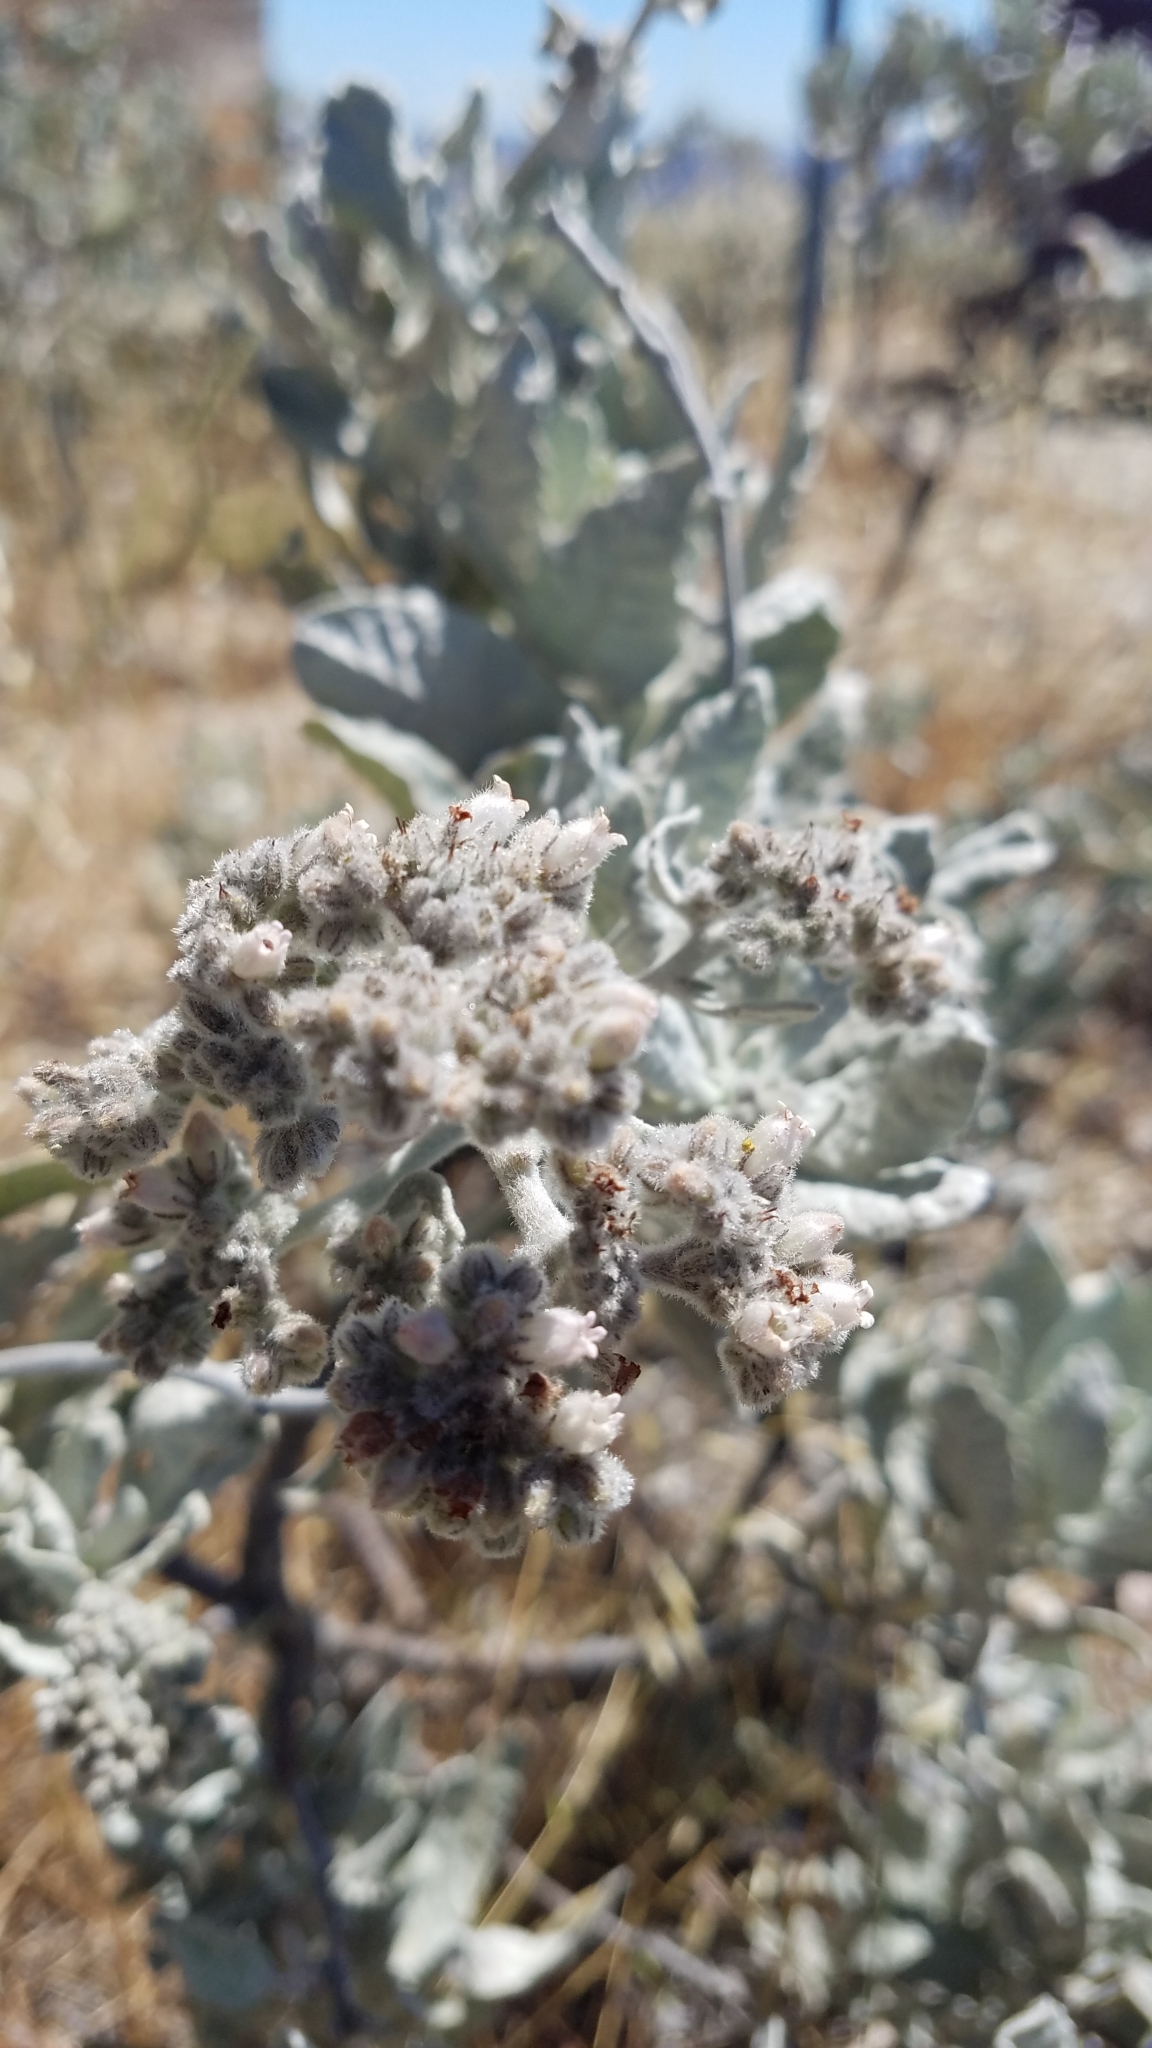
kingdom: Plantae
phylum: Tracheophyta
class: Magnoliopsida
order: Boraginales
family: Namaceae
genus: Eriodictyon
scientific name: Eriodictyon tomentosum
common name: Woolly yerba-santa
